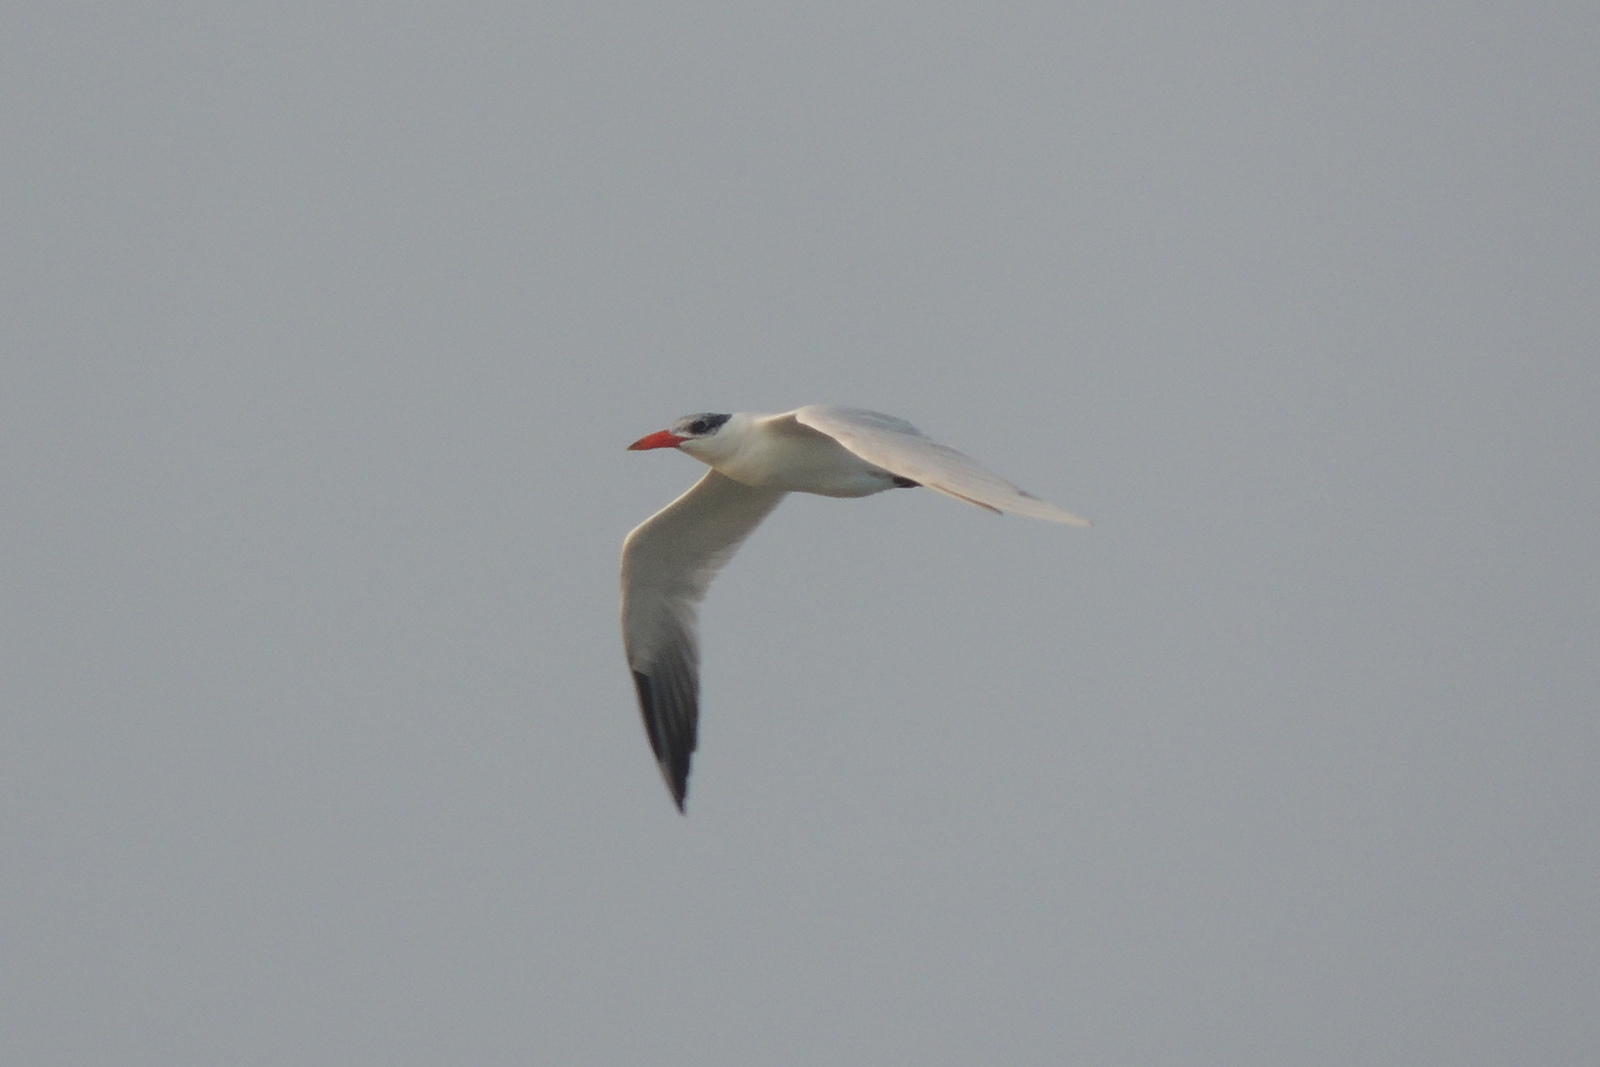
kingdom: Animalia
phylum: Chordata
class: Aves
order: Charadriiformes
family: Laridae
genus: Hydroprogne
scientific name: Hydroprogne caspia
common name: Caspian tern
